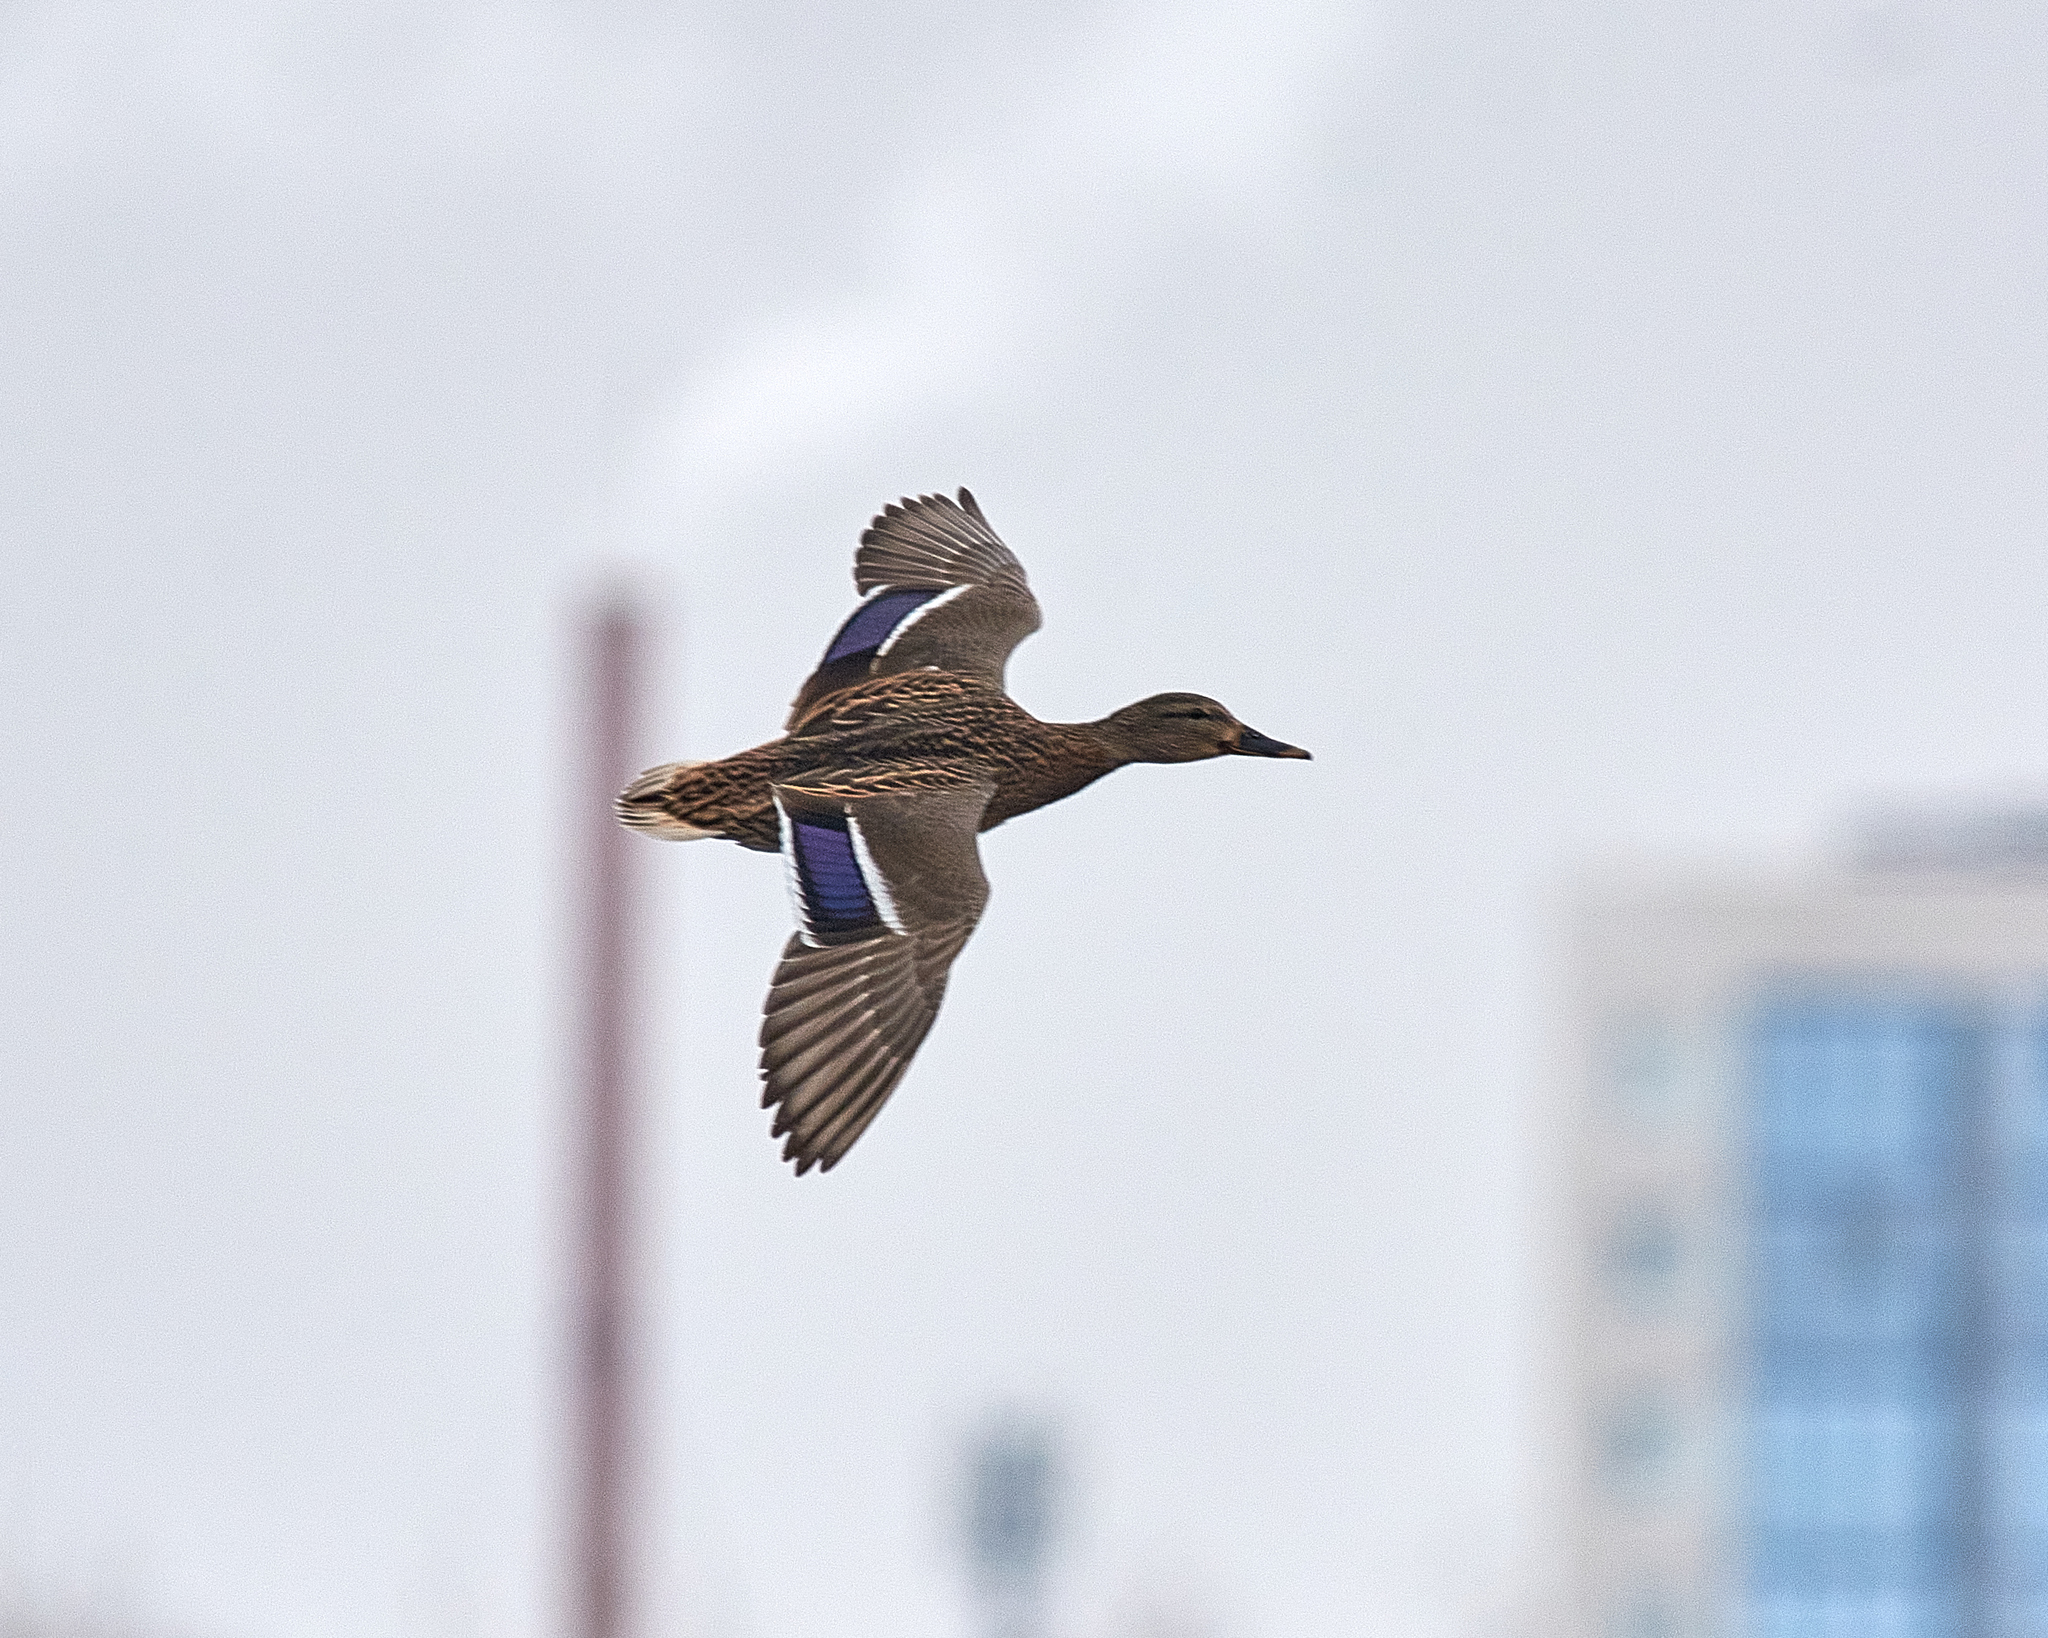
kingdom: Animalia
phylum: Chordata
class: Aves
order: Anseriformes
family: Anatidae
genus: Anas
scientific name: Anas platyrhynchos
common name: Mallard
